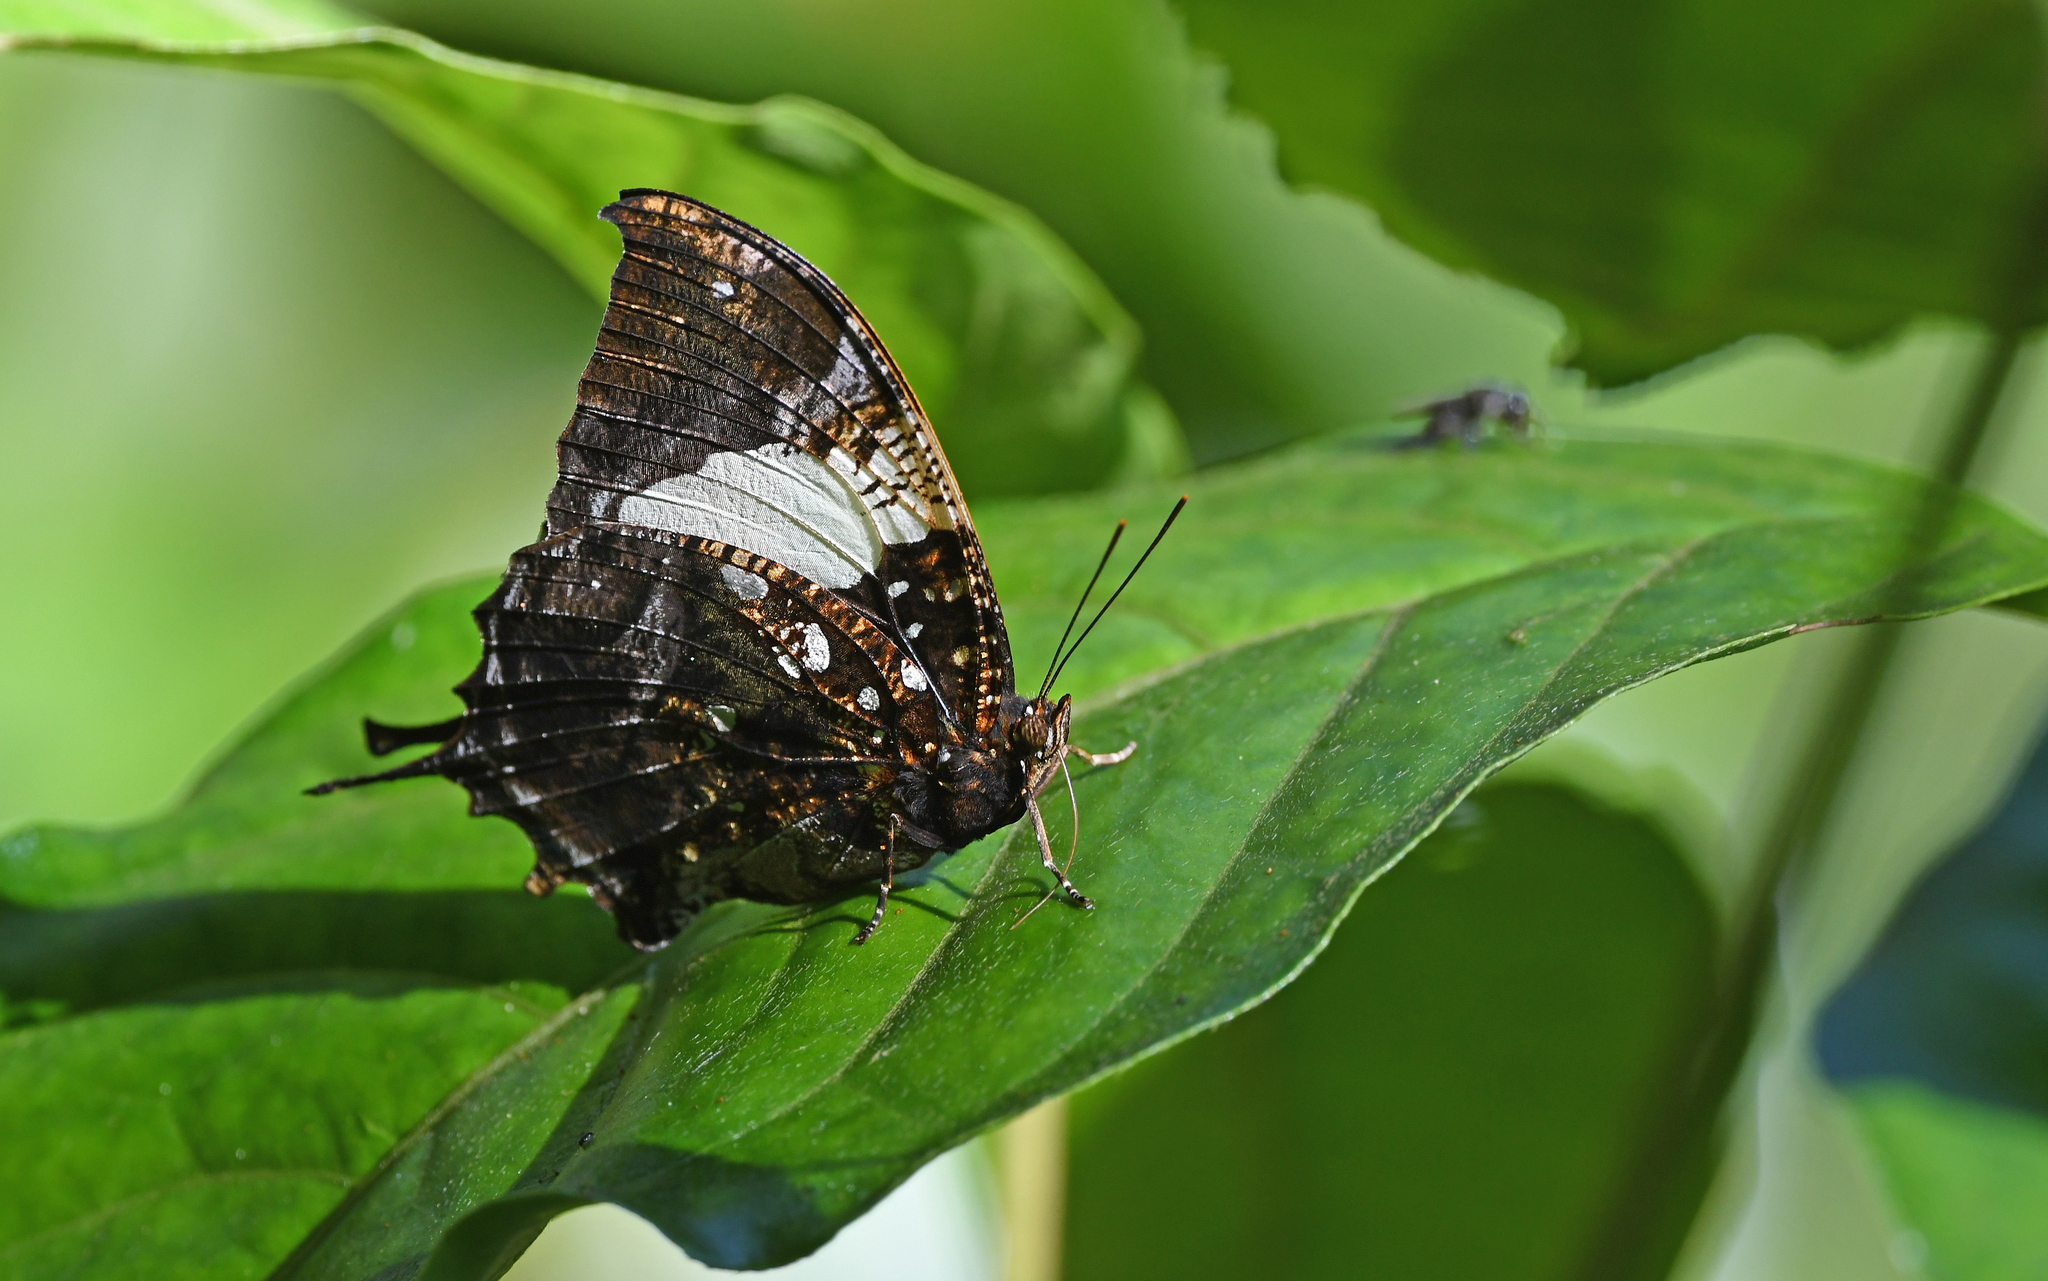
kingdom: Animalia
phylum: Arthropoda
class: Insecta
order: Lepidoptera
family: Nymphalidae
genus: Hypna
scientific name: Hypna clytemnestra
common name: Silver-studded leafwing
